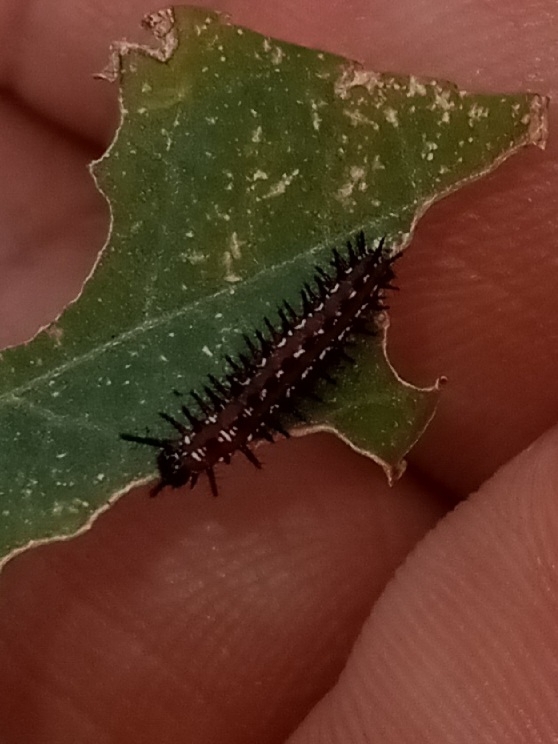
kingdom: Animalia
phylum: Arthropoda
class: Insecta
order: Lepidoptera
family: Nymphalidae
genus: Euptoieta
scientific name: Euptoieta claudia
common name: Variegated fritillary
